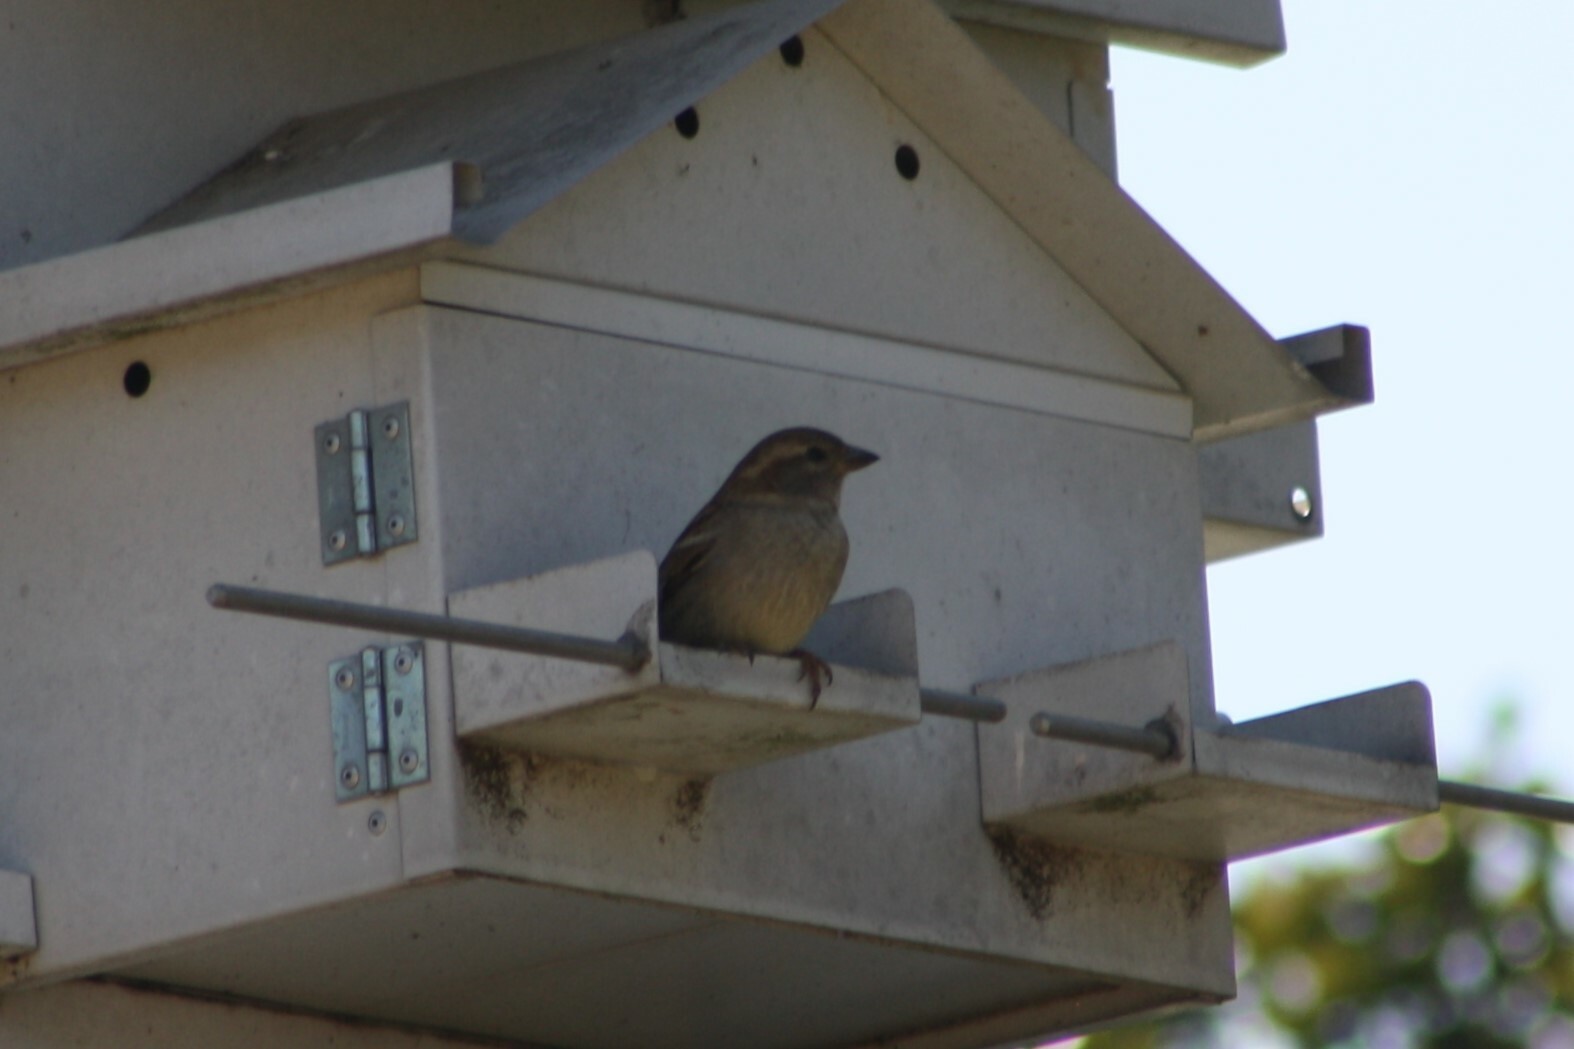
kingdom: Animalia
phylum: Chordata
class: Aves
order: Passeriformes
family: Passeridae
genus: Passer
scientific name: Passer domesticus
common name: House sparrow
